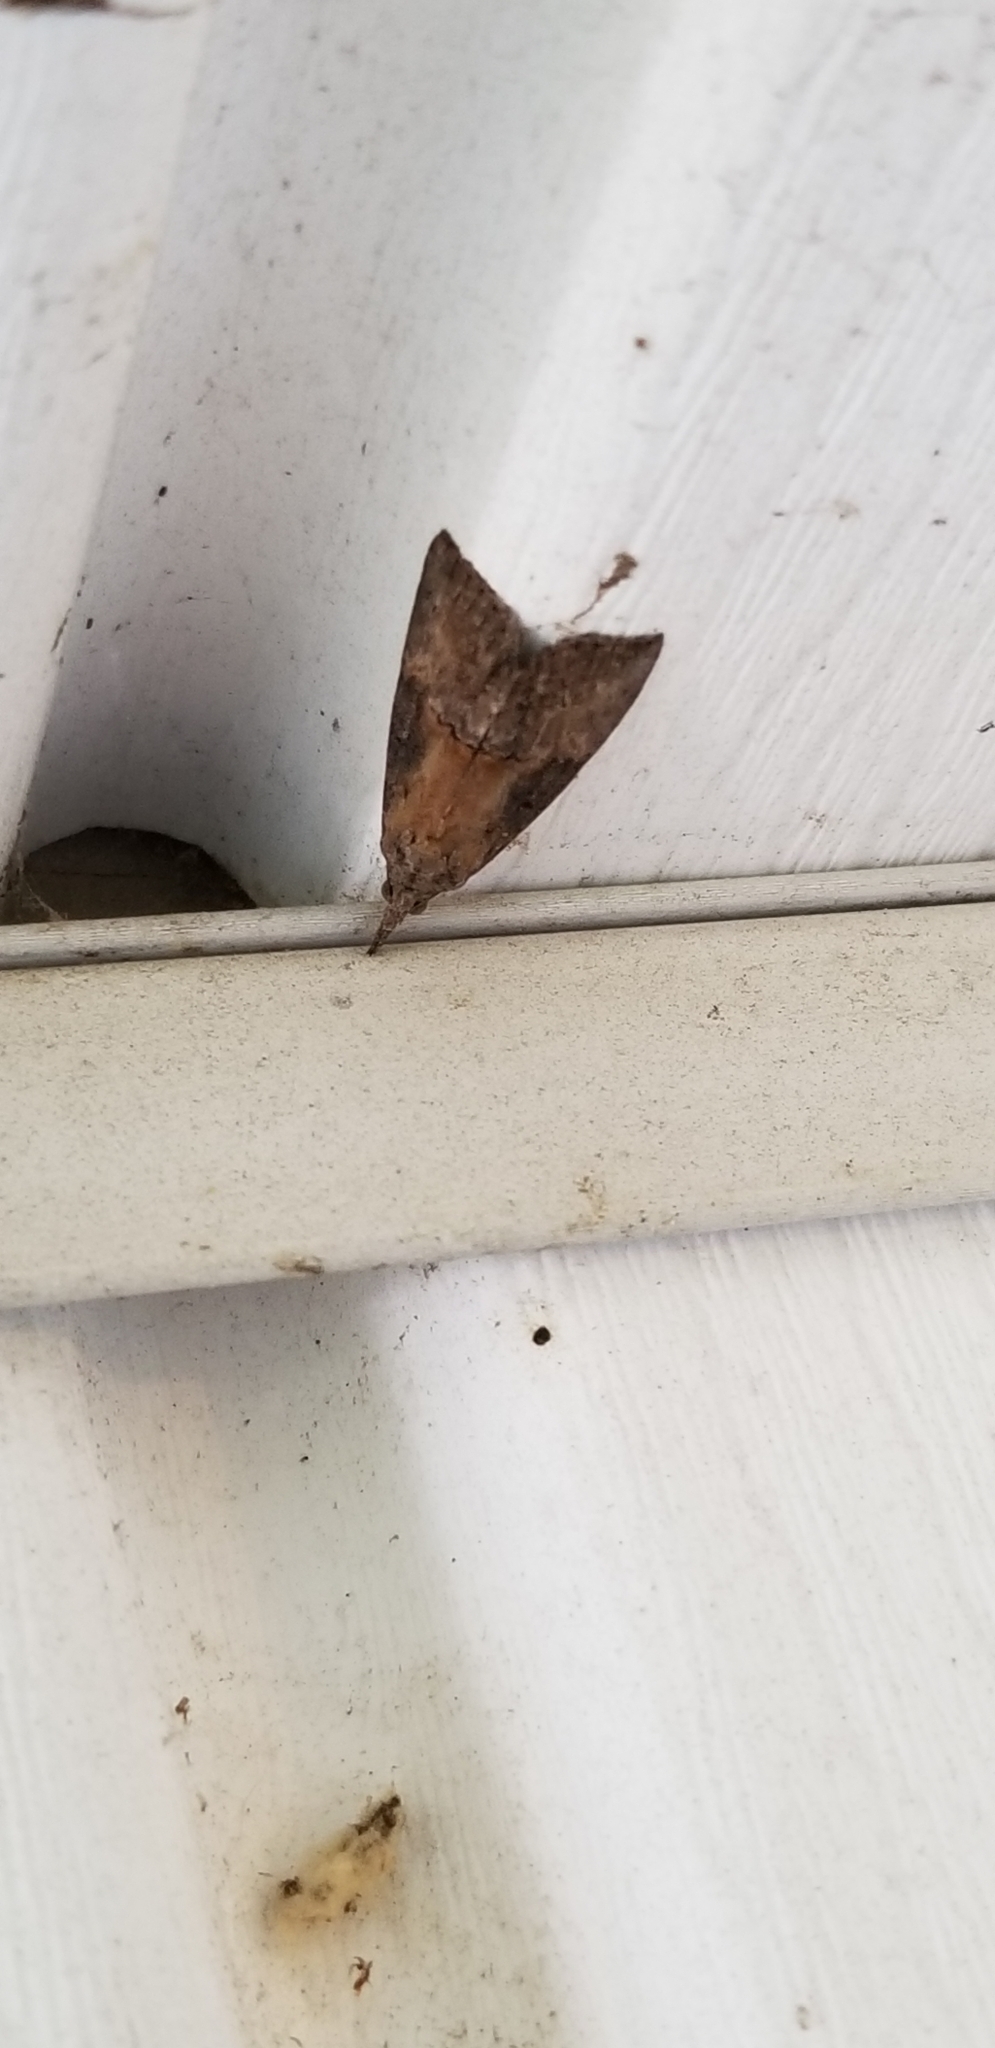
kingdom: Animalia
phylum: Arthropoda
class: Insecta
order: Lepidoptera
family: Erebidae
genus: Hypena
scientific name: Hypena scabra
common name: Green cloverworm
